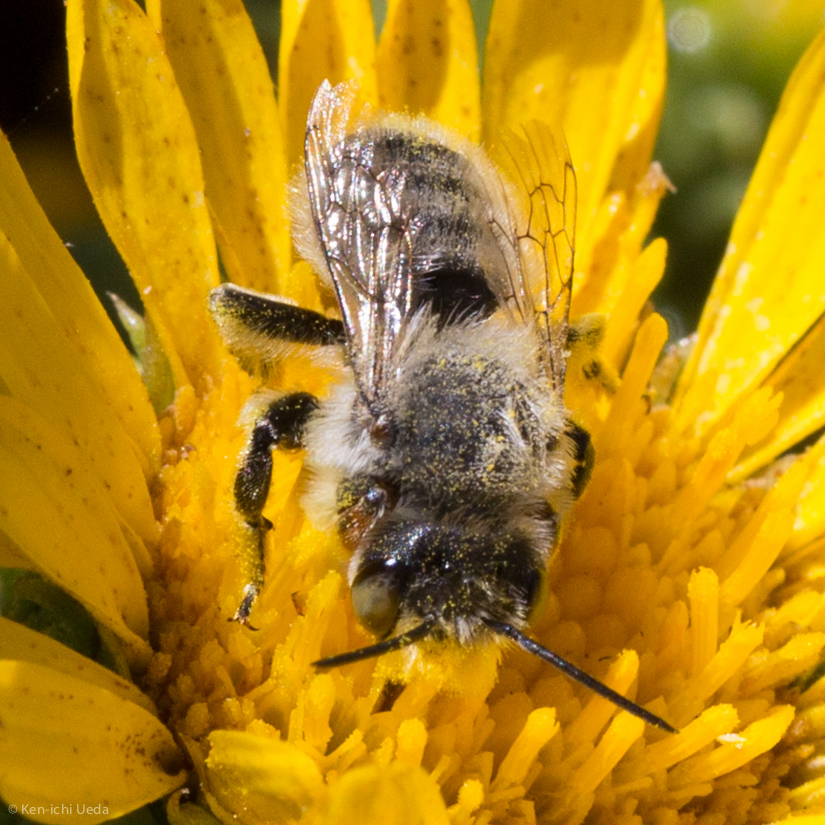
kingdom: Animalia
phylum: Arthropoda
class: Insecta
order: Hymenoptera
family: Megachilidae
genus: Megachile
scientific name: Megachile perihirta
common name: Western leafcutter
